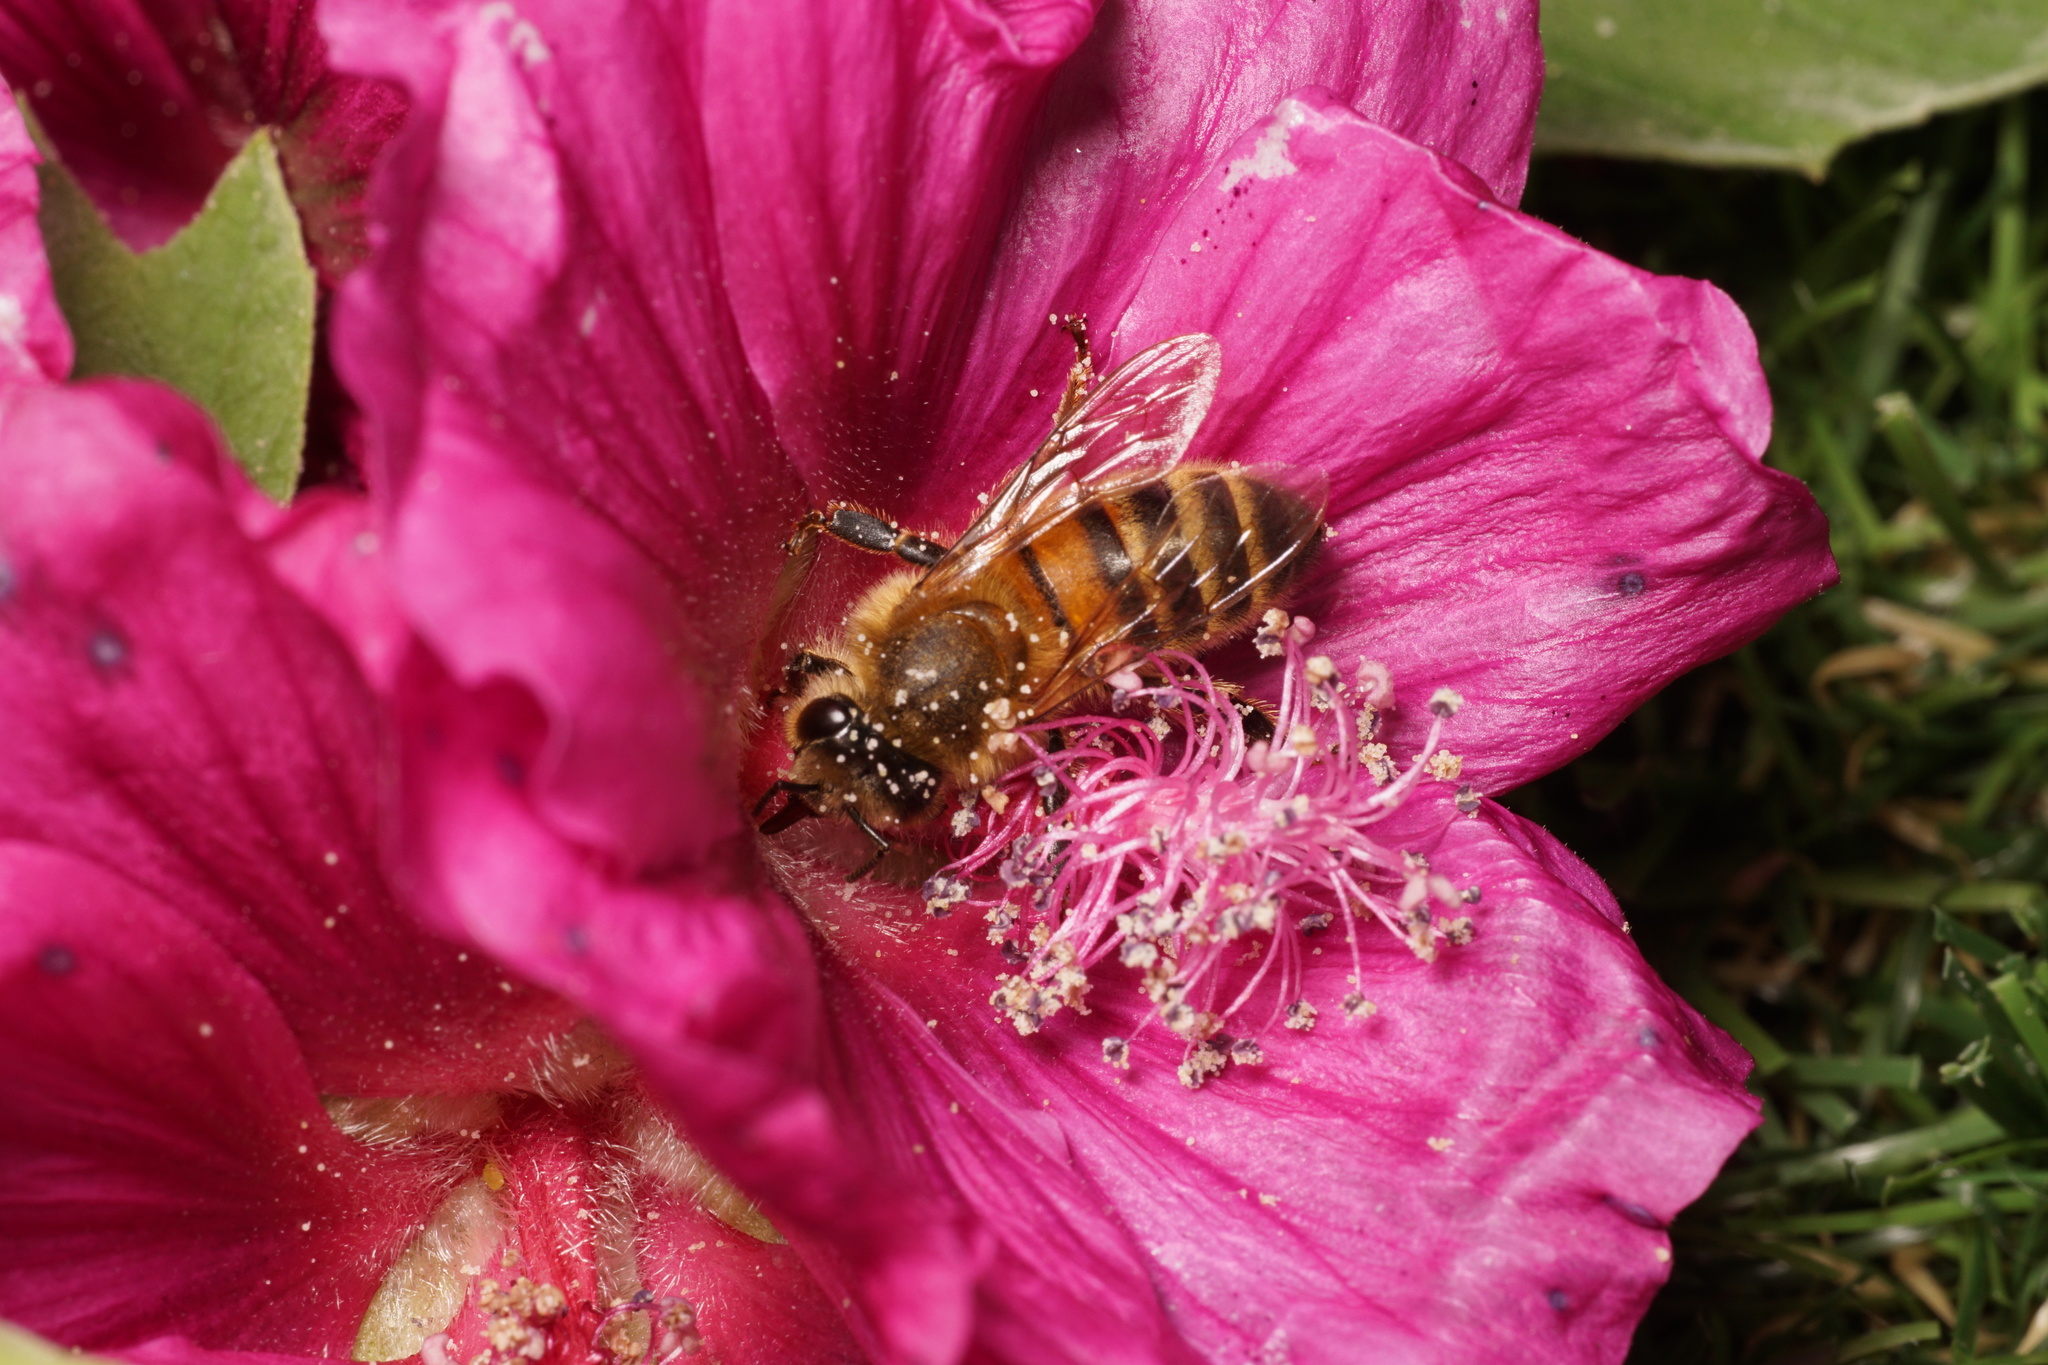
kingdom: Animalia
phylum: Arthropoda
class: Insecta
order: Hymenoptera
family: Apidae
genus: Apis
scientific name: Apis mellifera
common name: Honey bee
